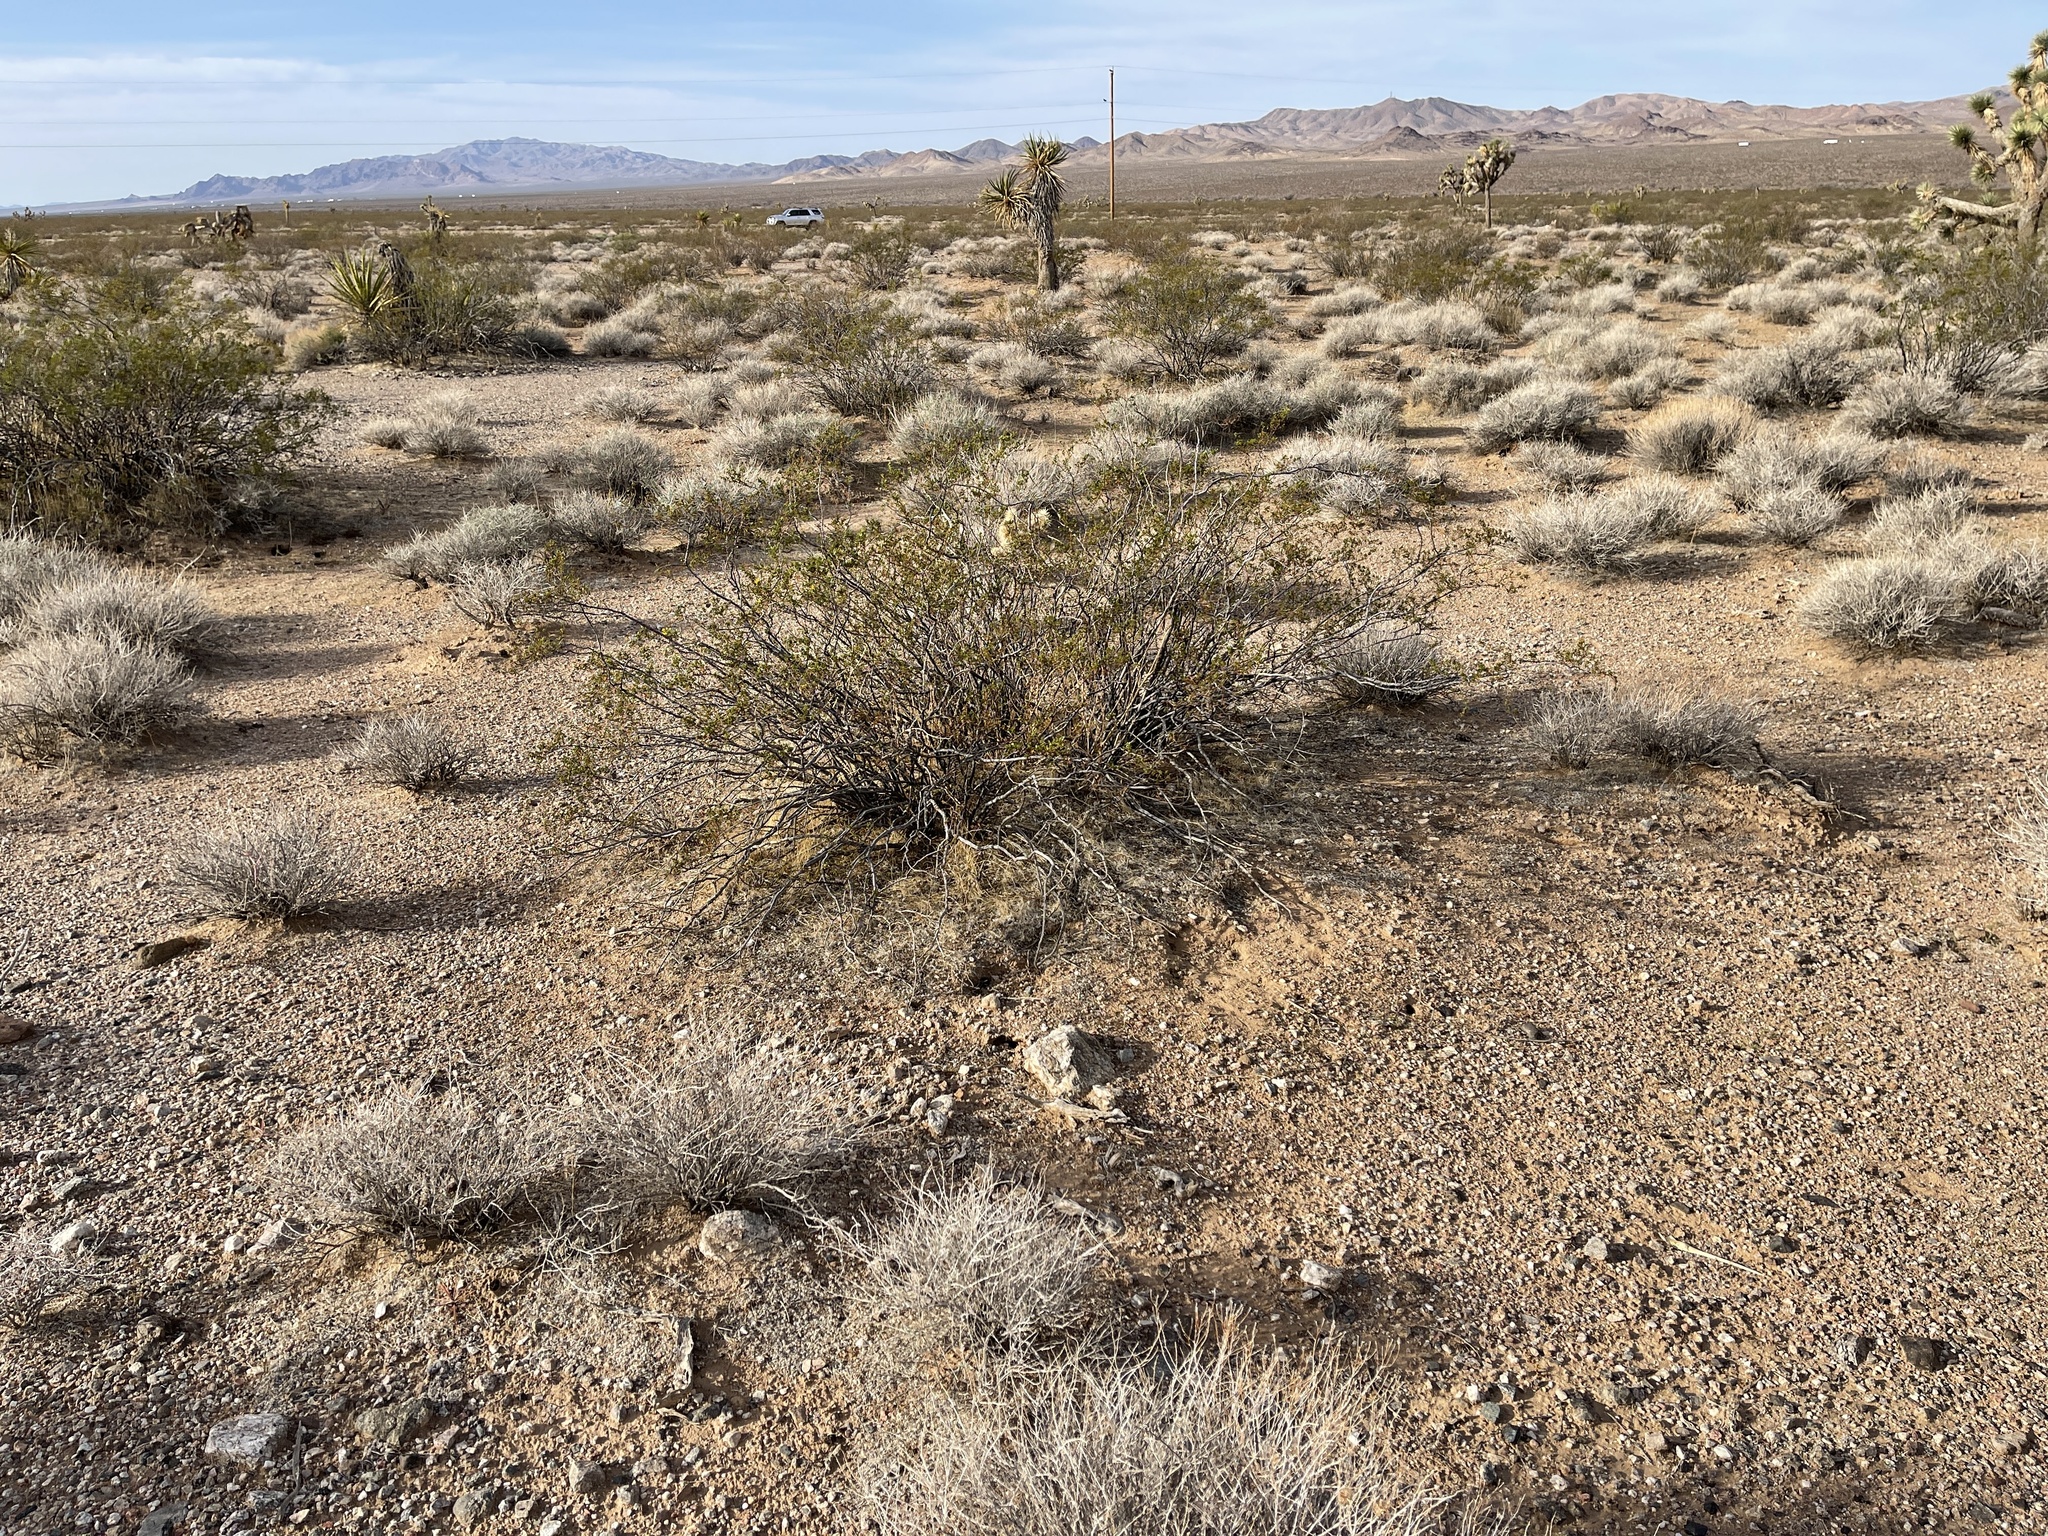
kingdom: Plantae
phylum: Tracheophyta
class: Magnoliopsida
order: Zygophyllales
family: Zygophyllaceae
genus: Larrea
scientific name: Larrea tridentata
